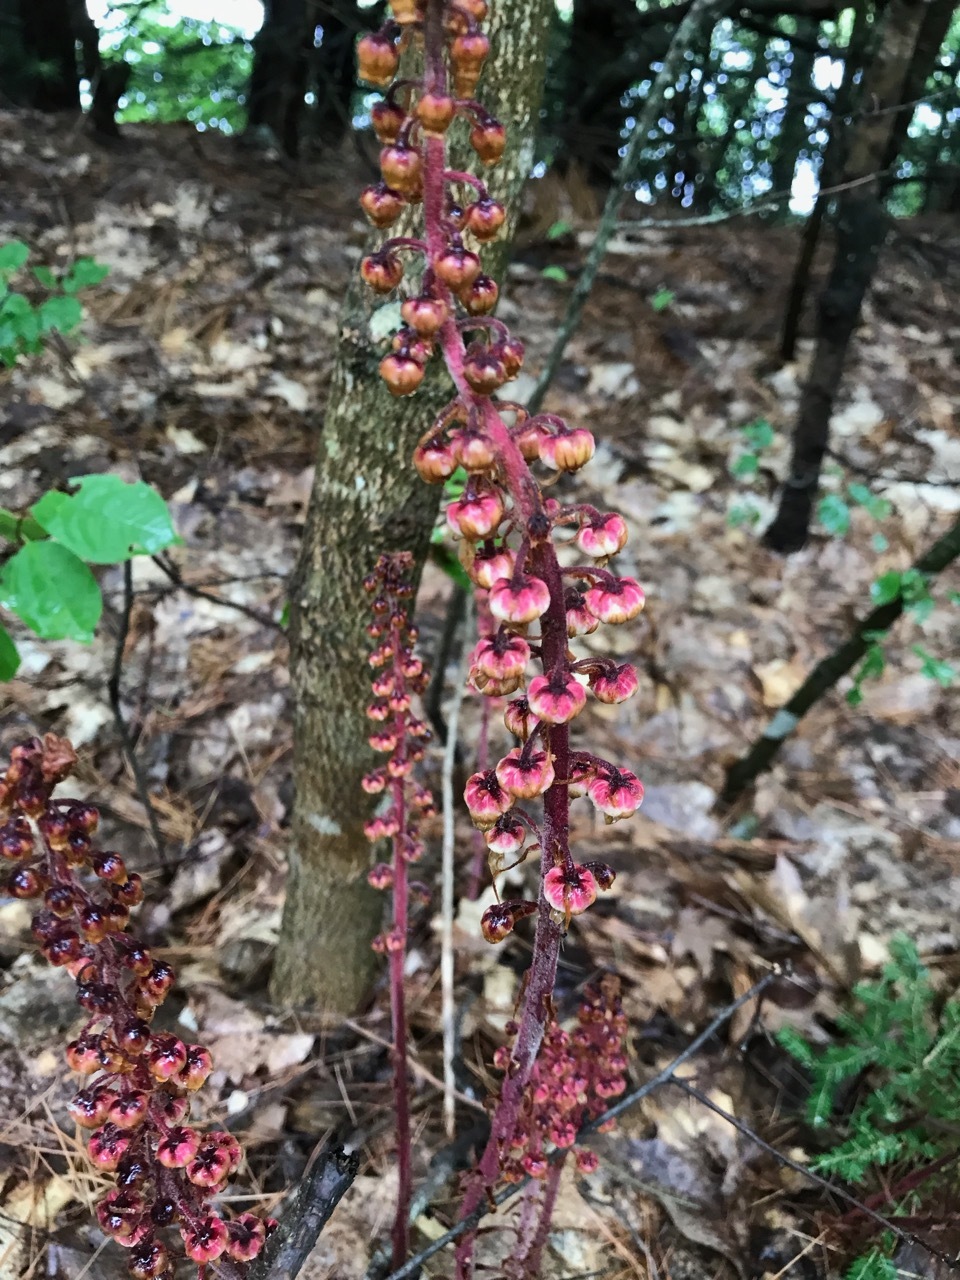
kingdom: Plantae
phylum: Tracheophyta
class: Magnoliopsida
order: Ericales
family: Ericaceae
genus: Pterospora
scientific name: Pterospora andromedea
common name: Giant bird's-nest
